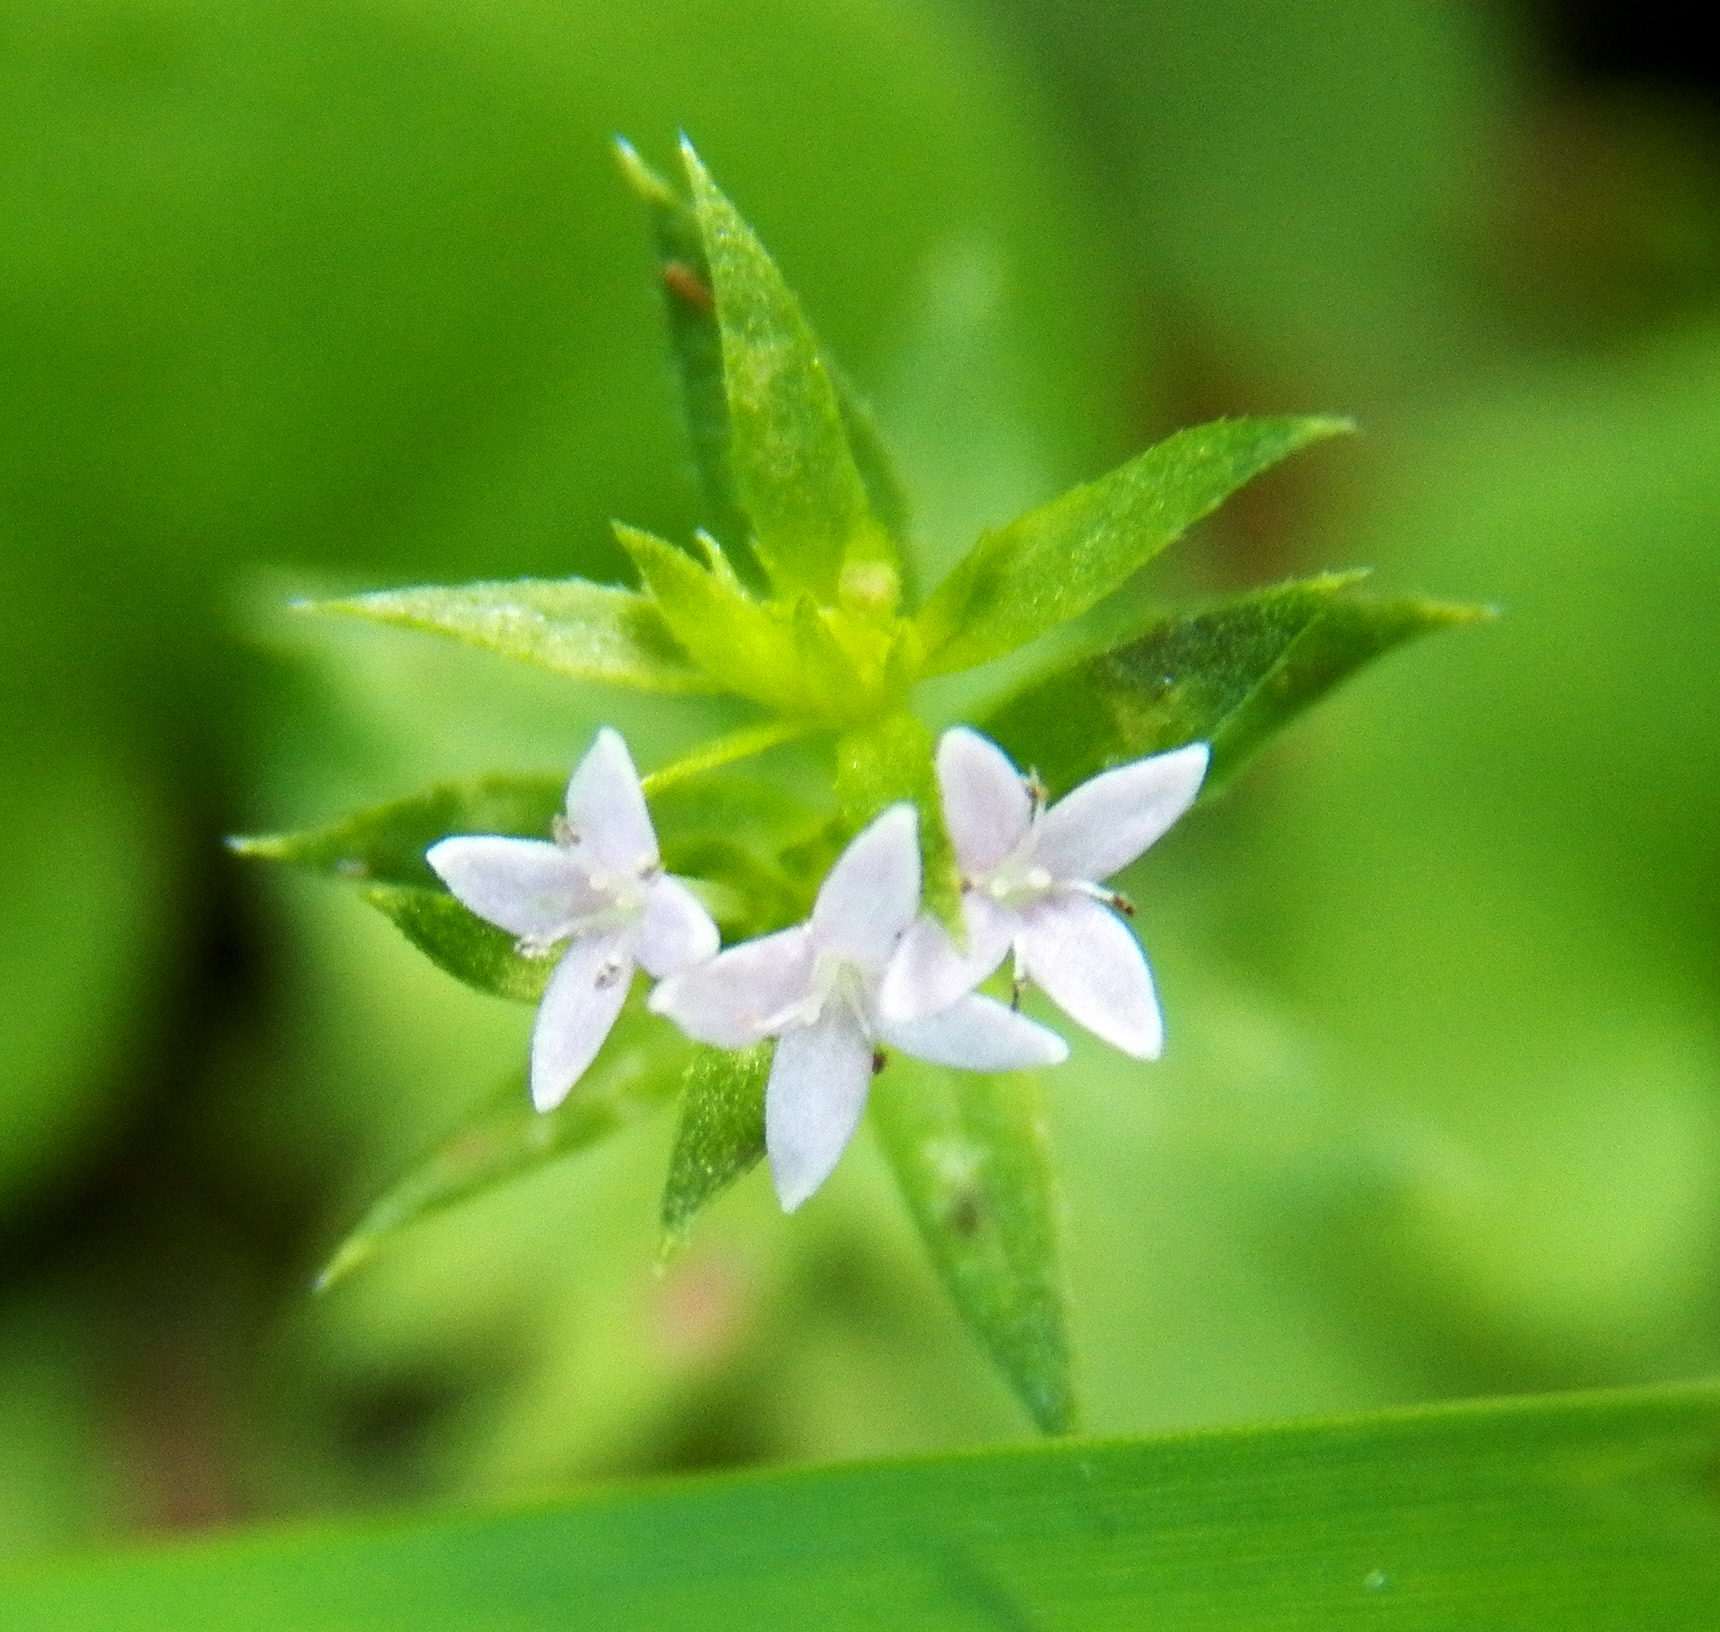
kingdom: Plantae
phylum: Tracheophyta
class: Magnoliopsida
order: Gentianales
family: Rubiaceae
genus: Sherardia
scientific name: Sherardia arvensis
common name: Field madder
